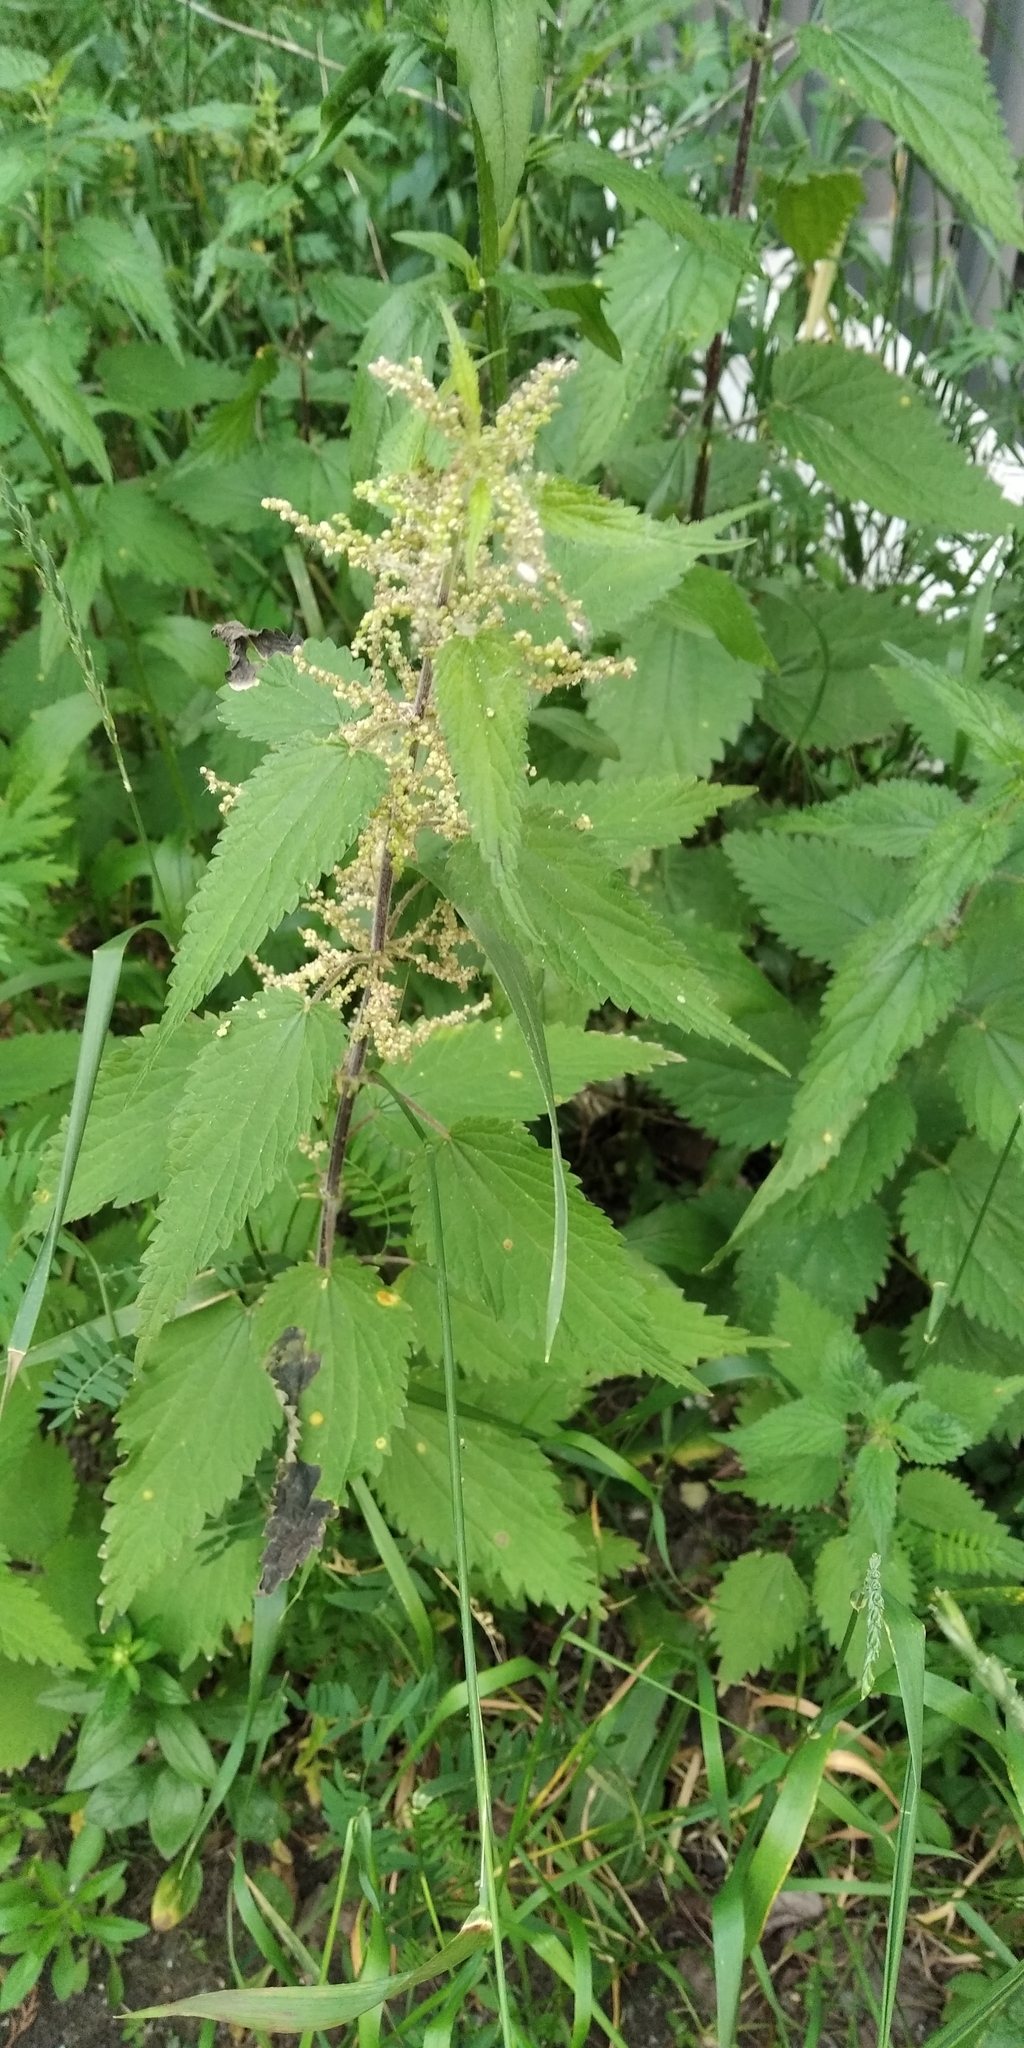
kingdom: Plantae
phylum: Tracheophyta
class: Magnoliopsida
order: Rosales
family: Urticaceae
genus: Urtica
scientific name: Urtica dioica
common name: Common nettle
